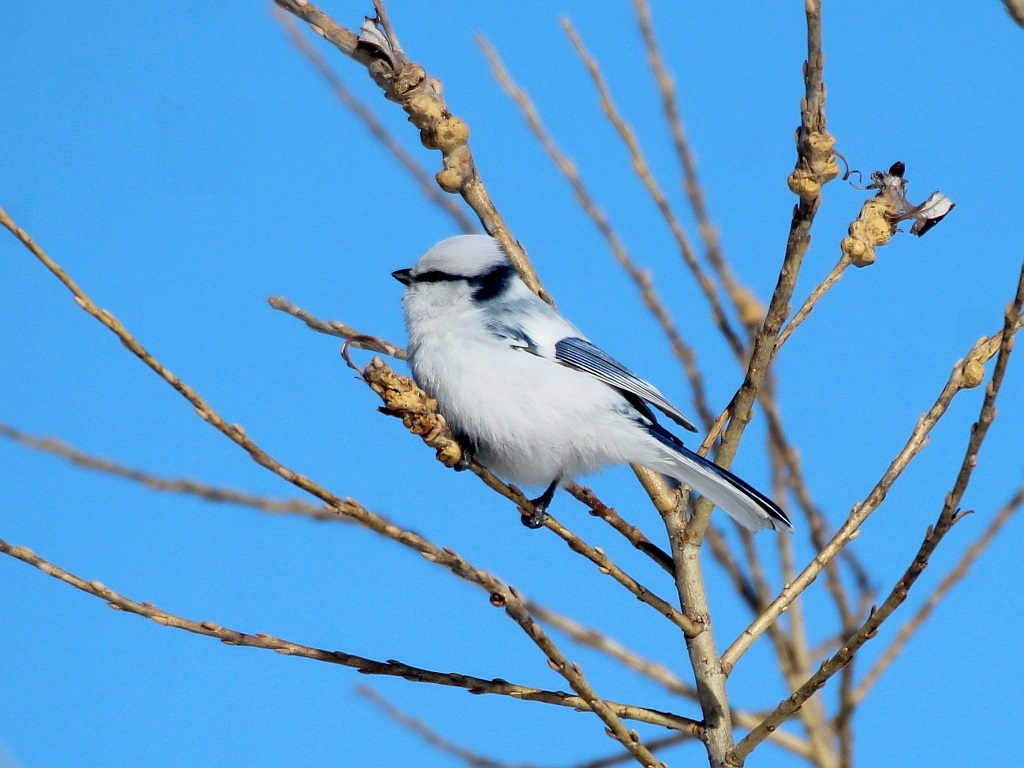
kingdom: Animalia
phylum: Chordata
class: Aves
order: Passeriformes
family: Paridae
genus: Cyanistes
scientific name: Cyanistes cyanus
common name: Azure tit
